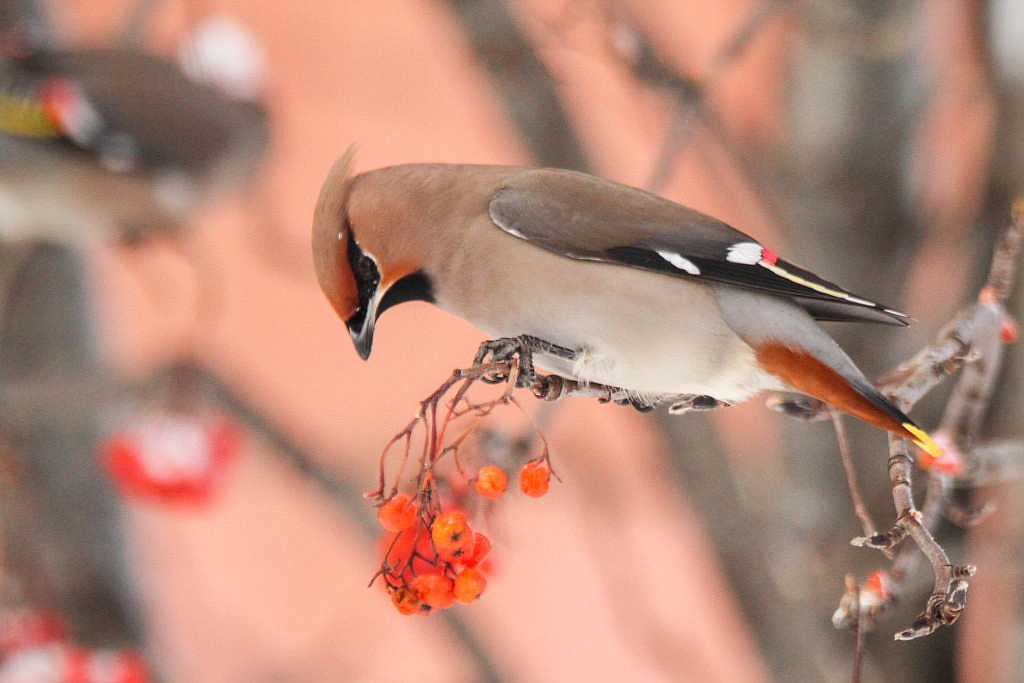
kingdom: Animalia
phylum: Chordata
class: Aves
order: Passeriformes
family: Bombycillidae
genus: Bombycilla
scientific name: Bombycilla garrulus
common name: Bohemian waxwing
